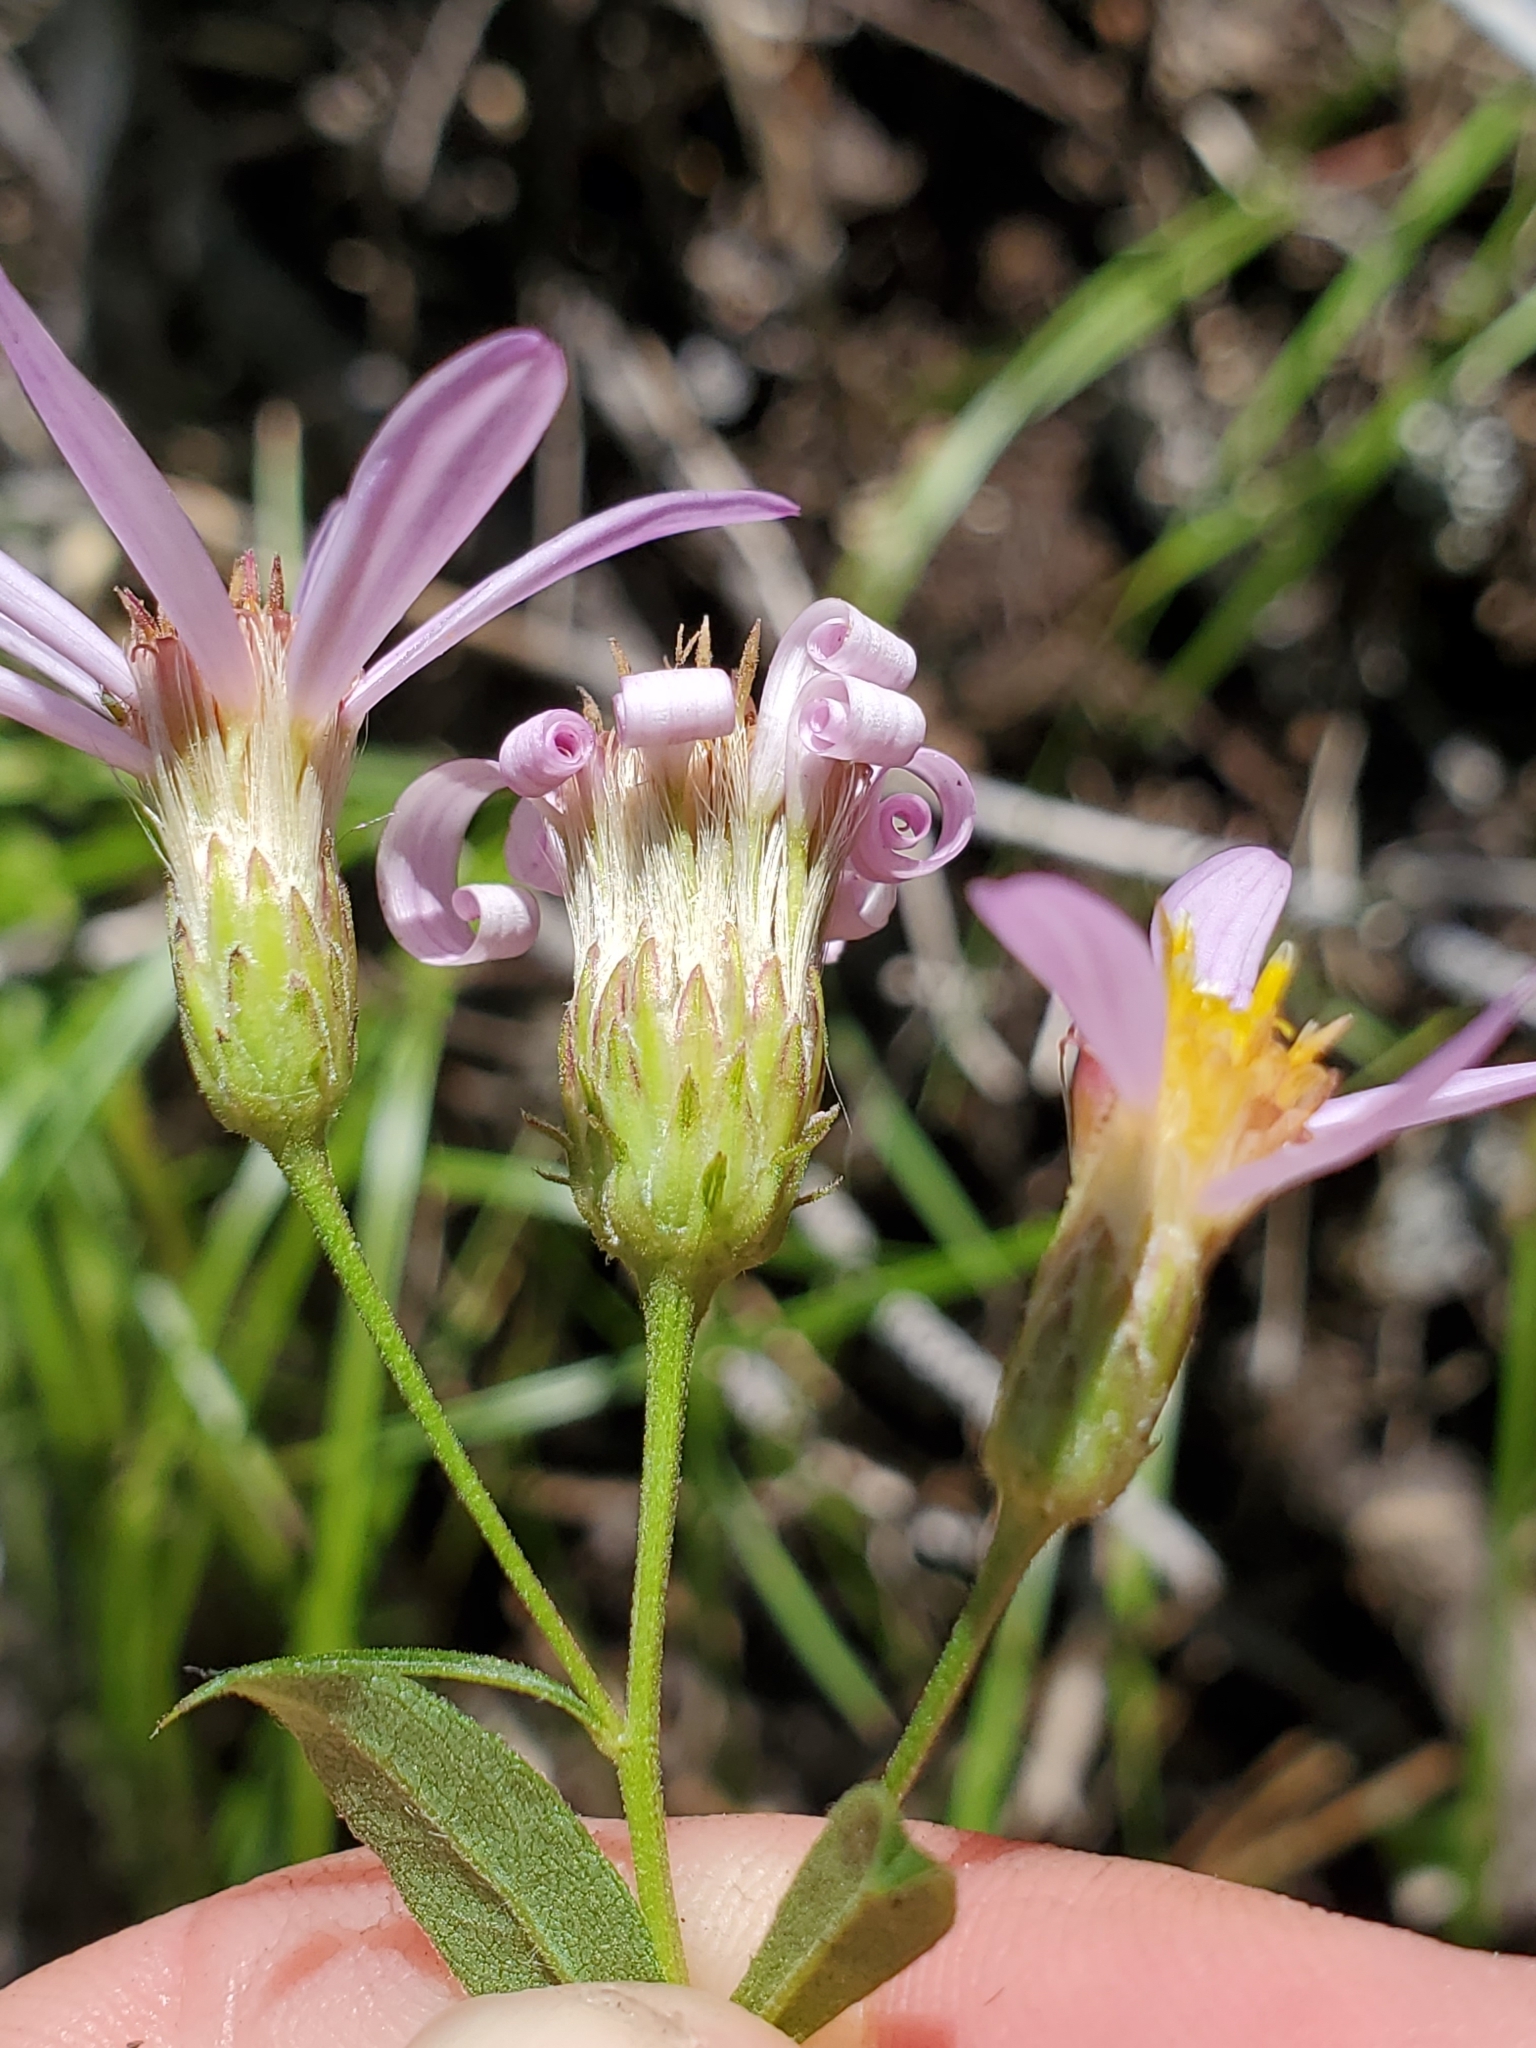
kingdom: Plantae
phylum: Tracheophyta
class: Magnoliopsida
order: Asterales
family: Asteraceae
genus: Eucephalus
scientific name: Eucephalus engelmannii
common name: Engelmann's aster
